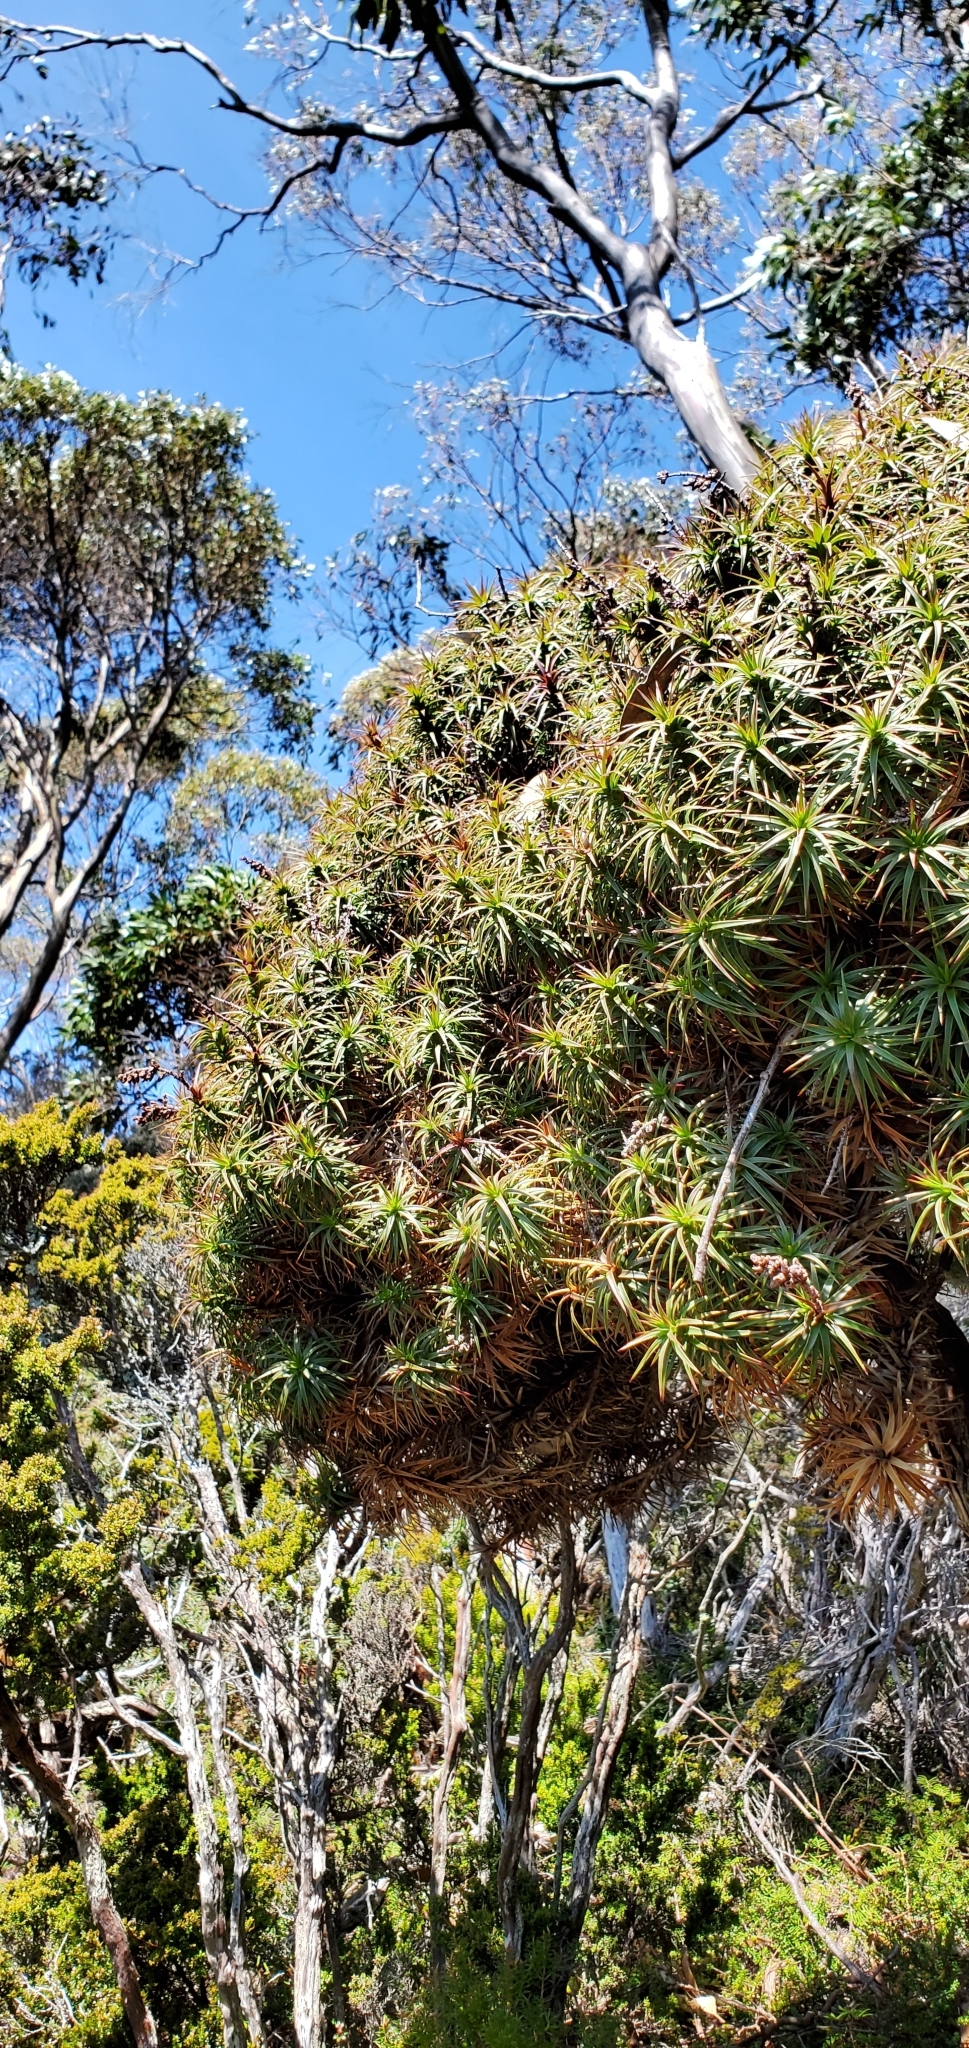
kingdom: Plantae
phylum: Tracheophyta
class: Magnoliopsida
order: Ericales
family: Ericaceae
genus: Dracophyllum
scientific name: Dracophyllum persistentifolium
